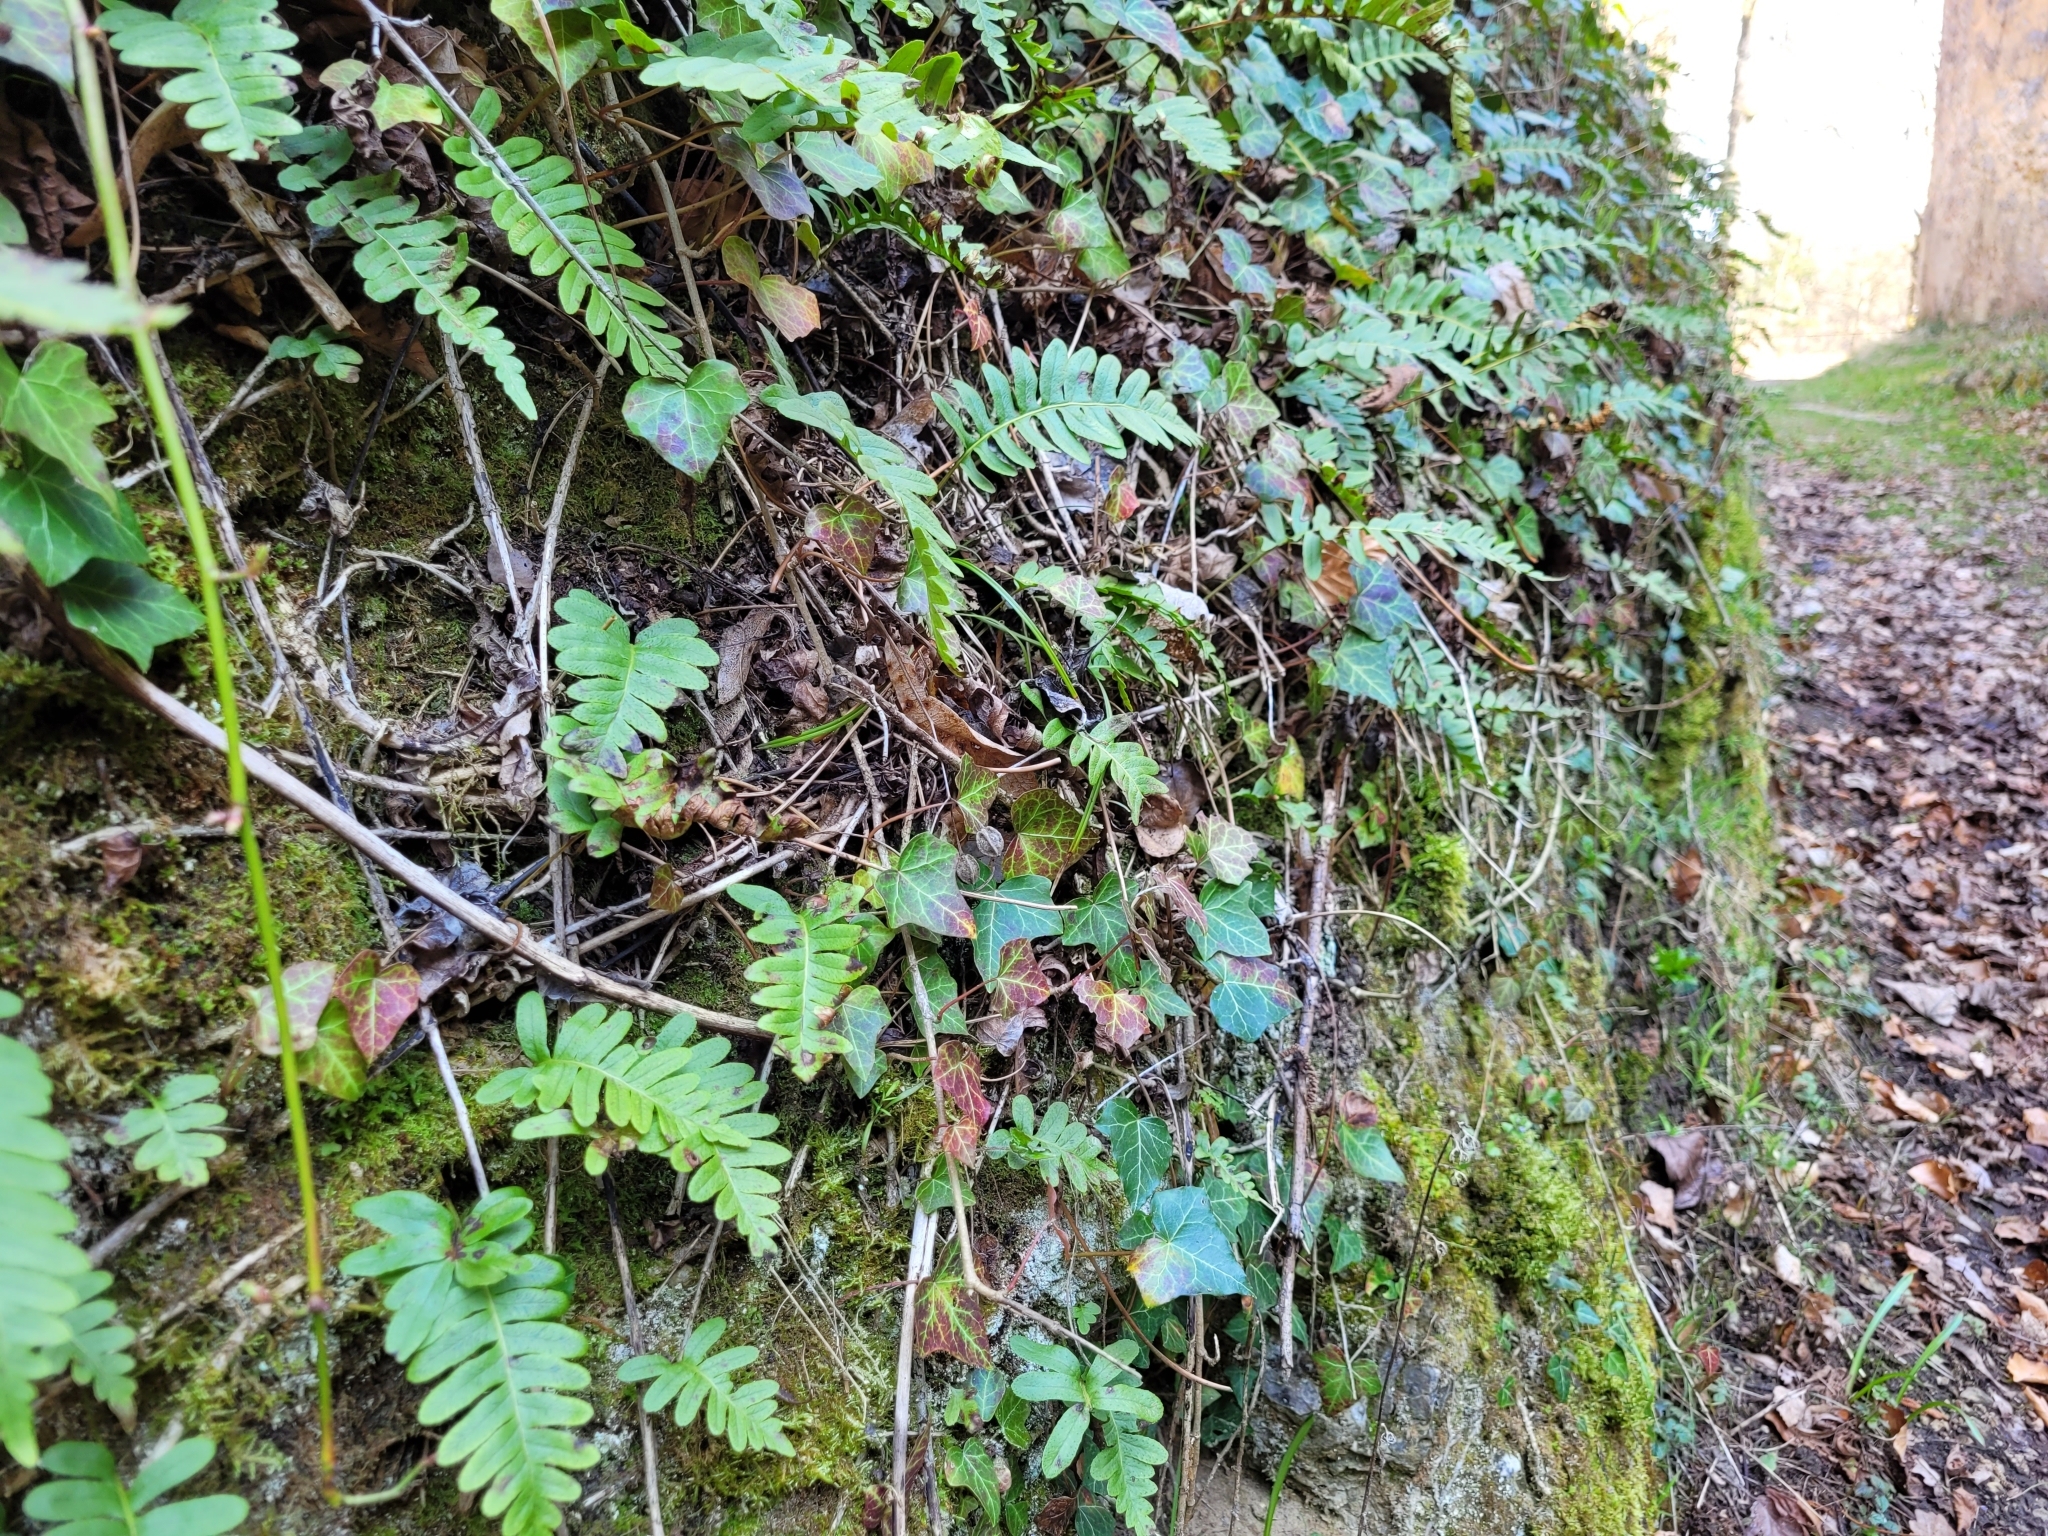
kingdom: Plantae
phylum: Tracheophyta
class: Polypodiopsida
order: Polypodiales
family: Polypodiaceae
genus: Polypodium
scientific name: Polypodium vulgare
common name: Common polypody
